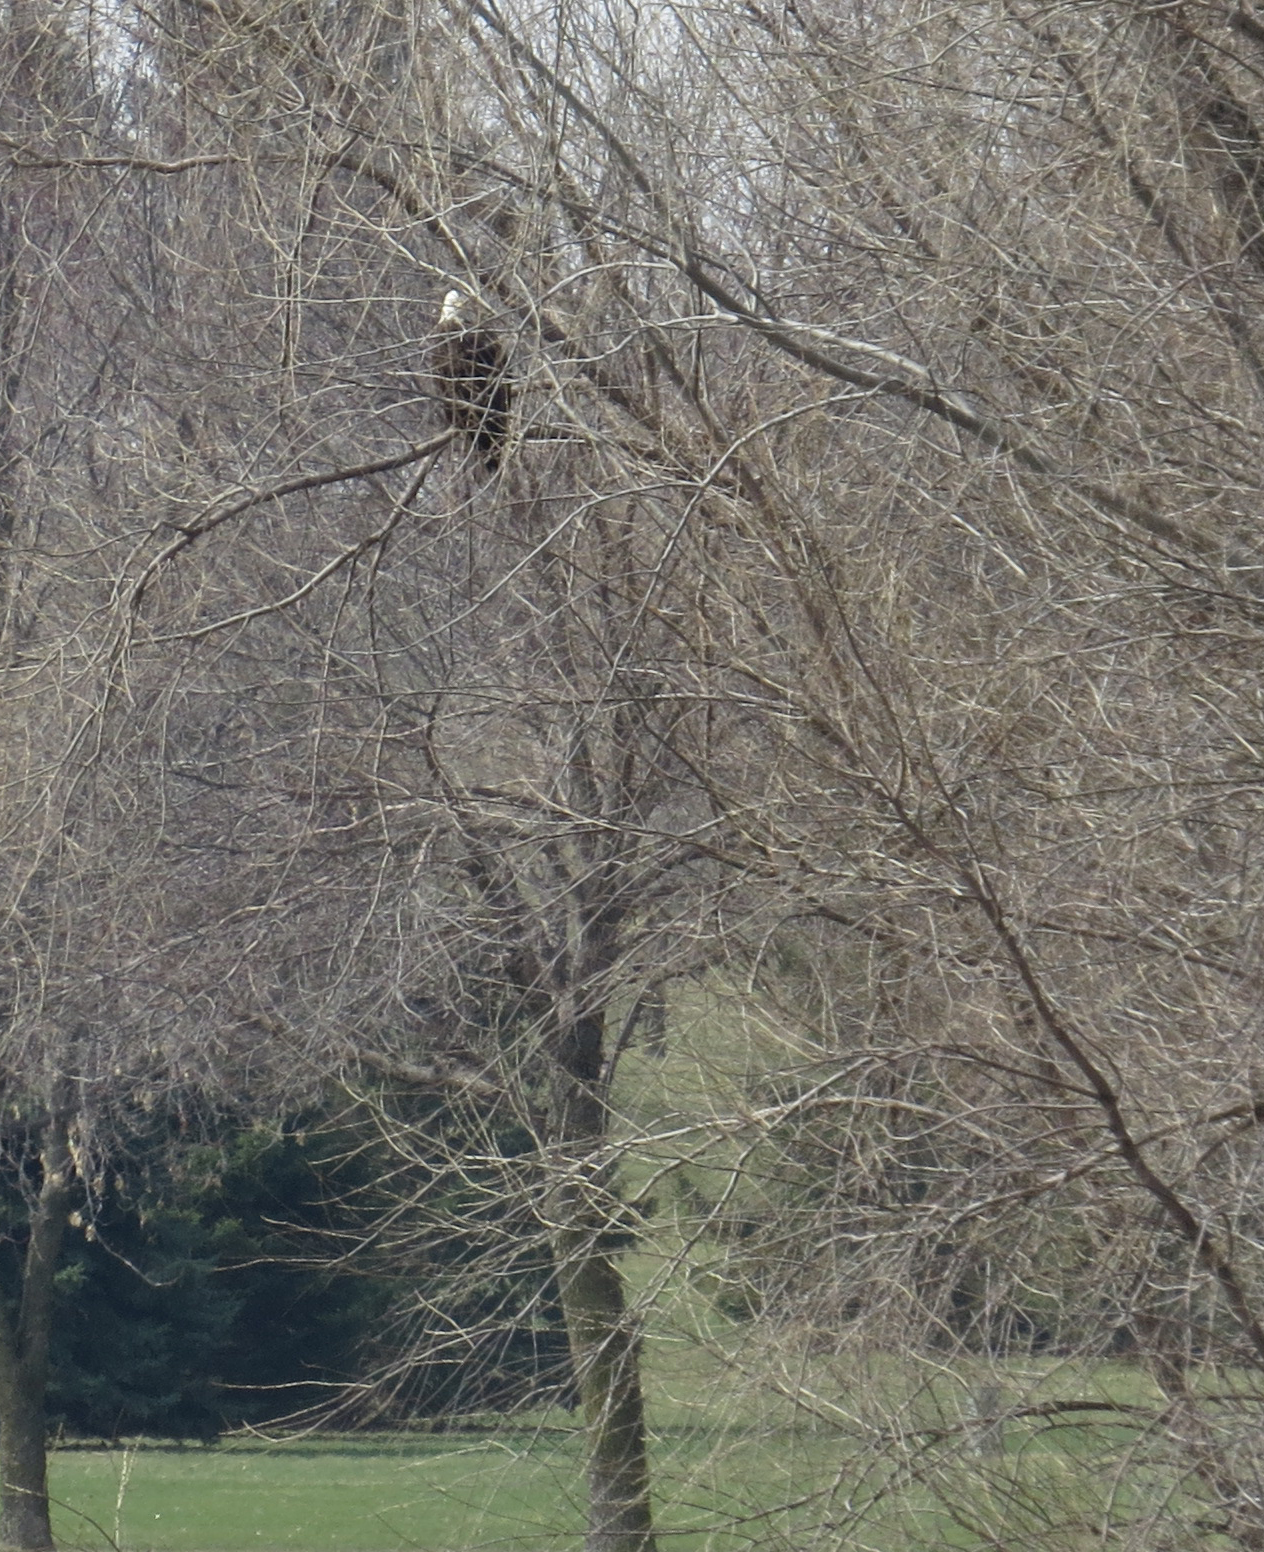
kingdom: Animalia
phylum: Chordata
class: Aves
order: Accipitriformes
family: Accipitridae
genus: Haliaeetus
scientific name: Haliaeetus leucocephalus
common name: Bald eagle
